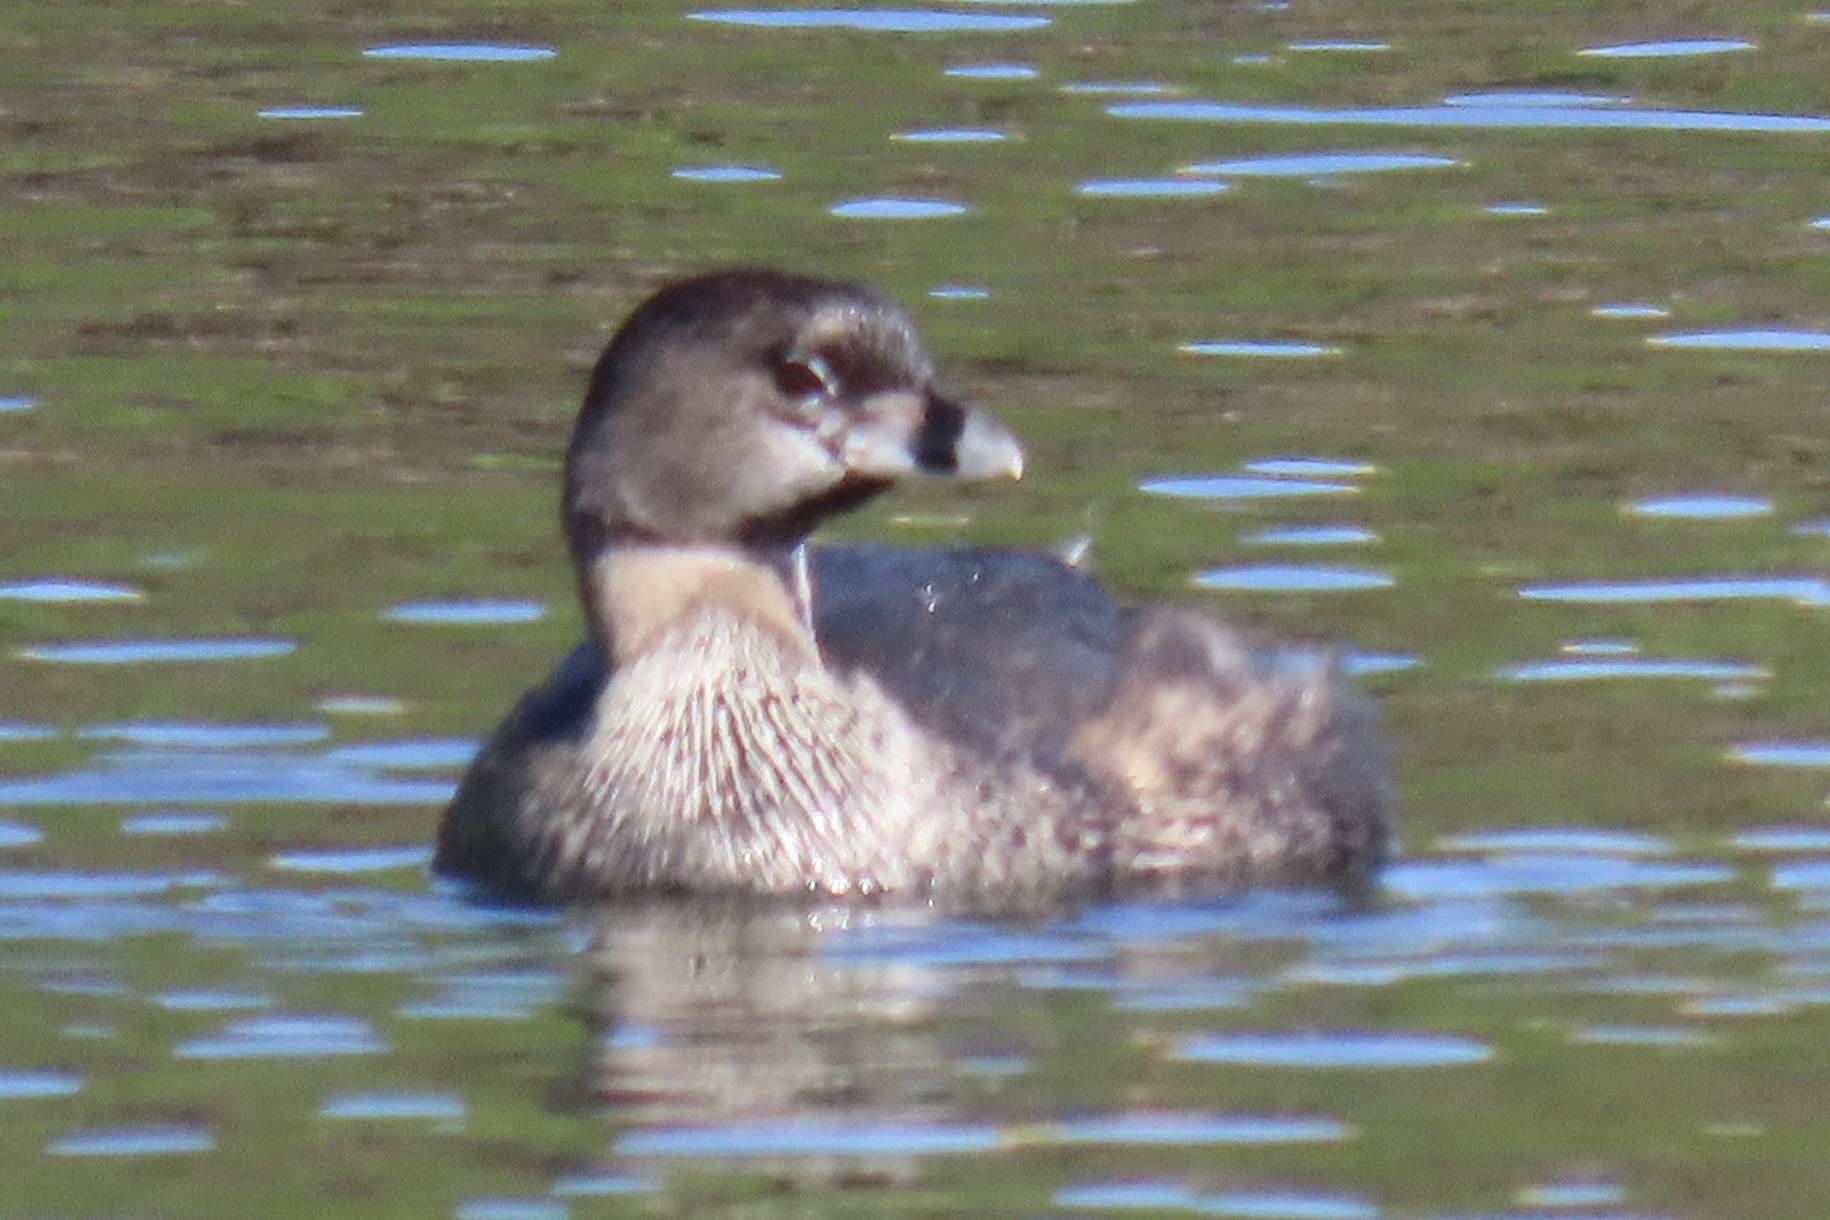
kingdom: Animalia
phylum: Chordata
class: Aves
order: Podicipediformes
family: Podicipedidae
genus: Podilymbus
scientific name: Podilymbus podiceps
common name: Pied-billed grebe
